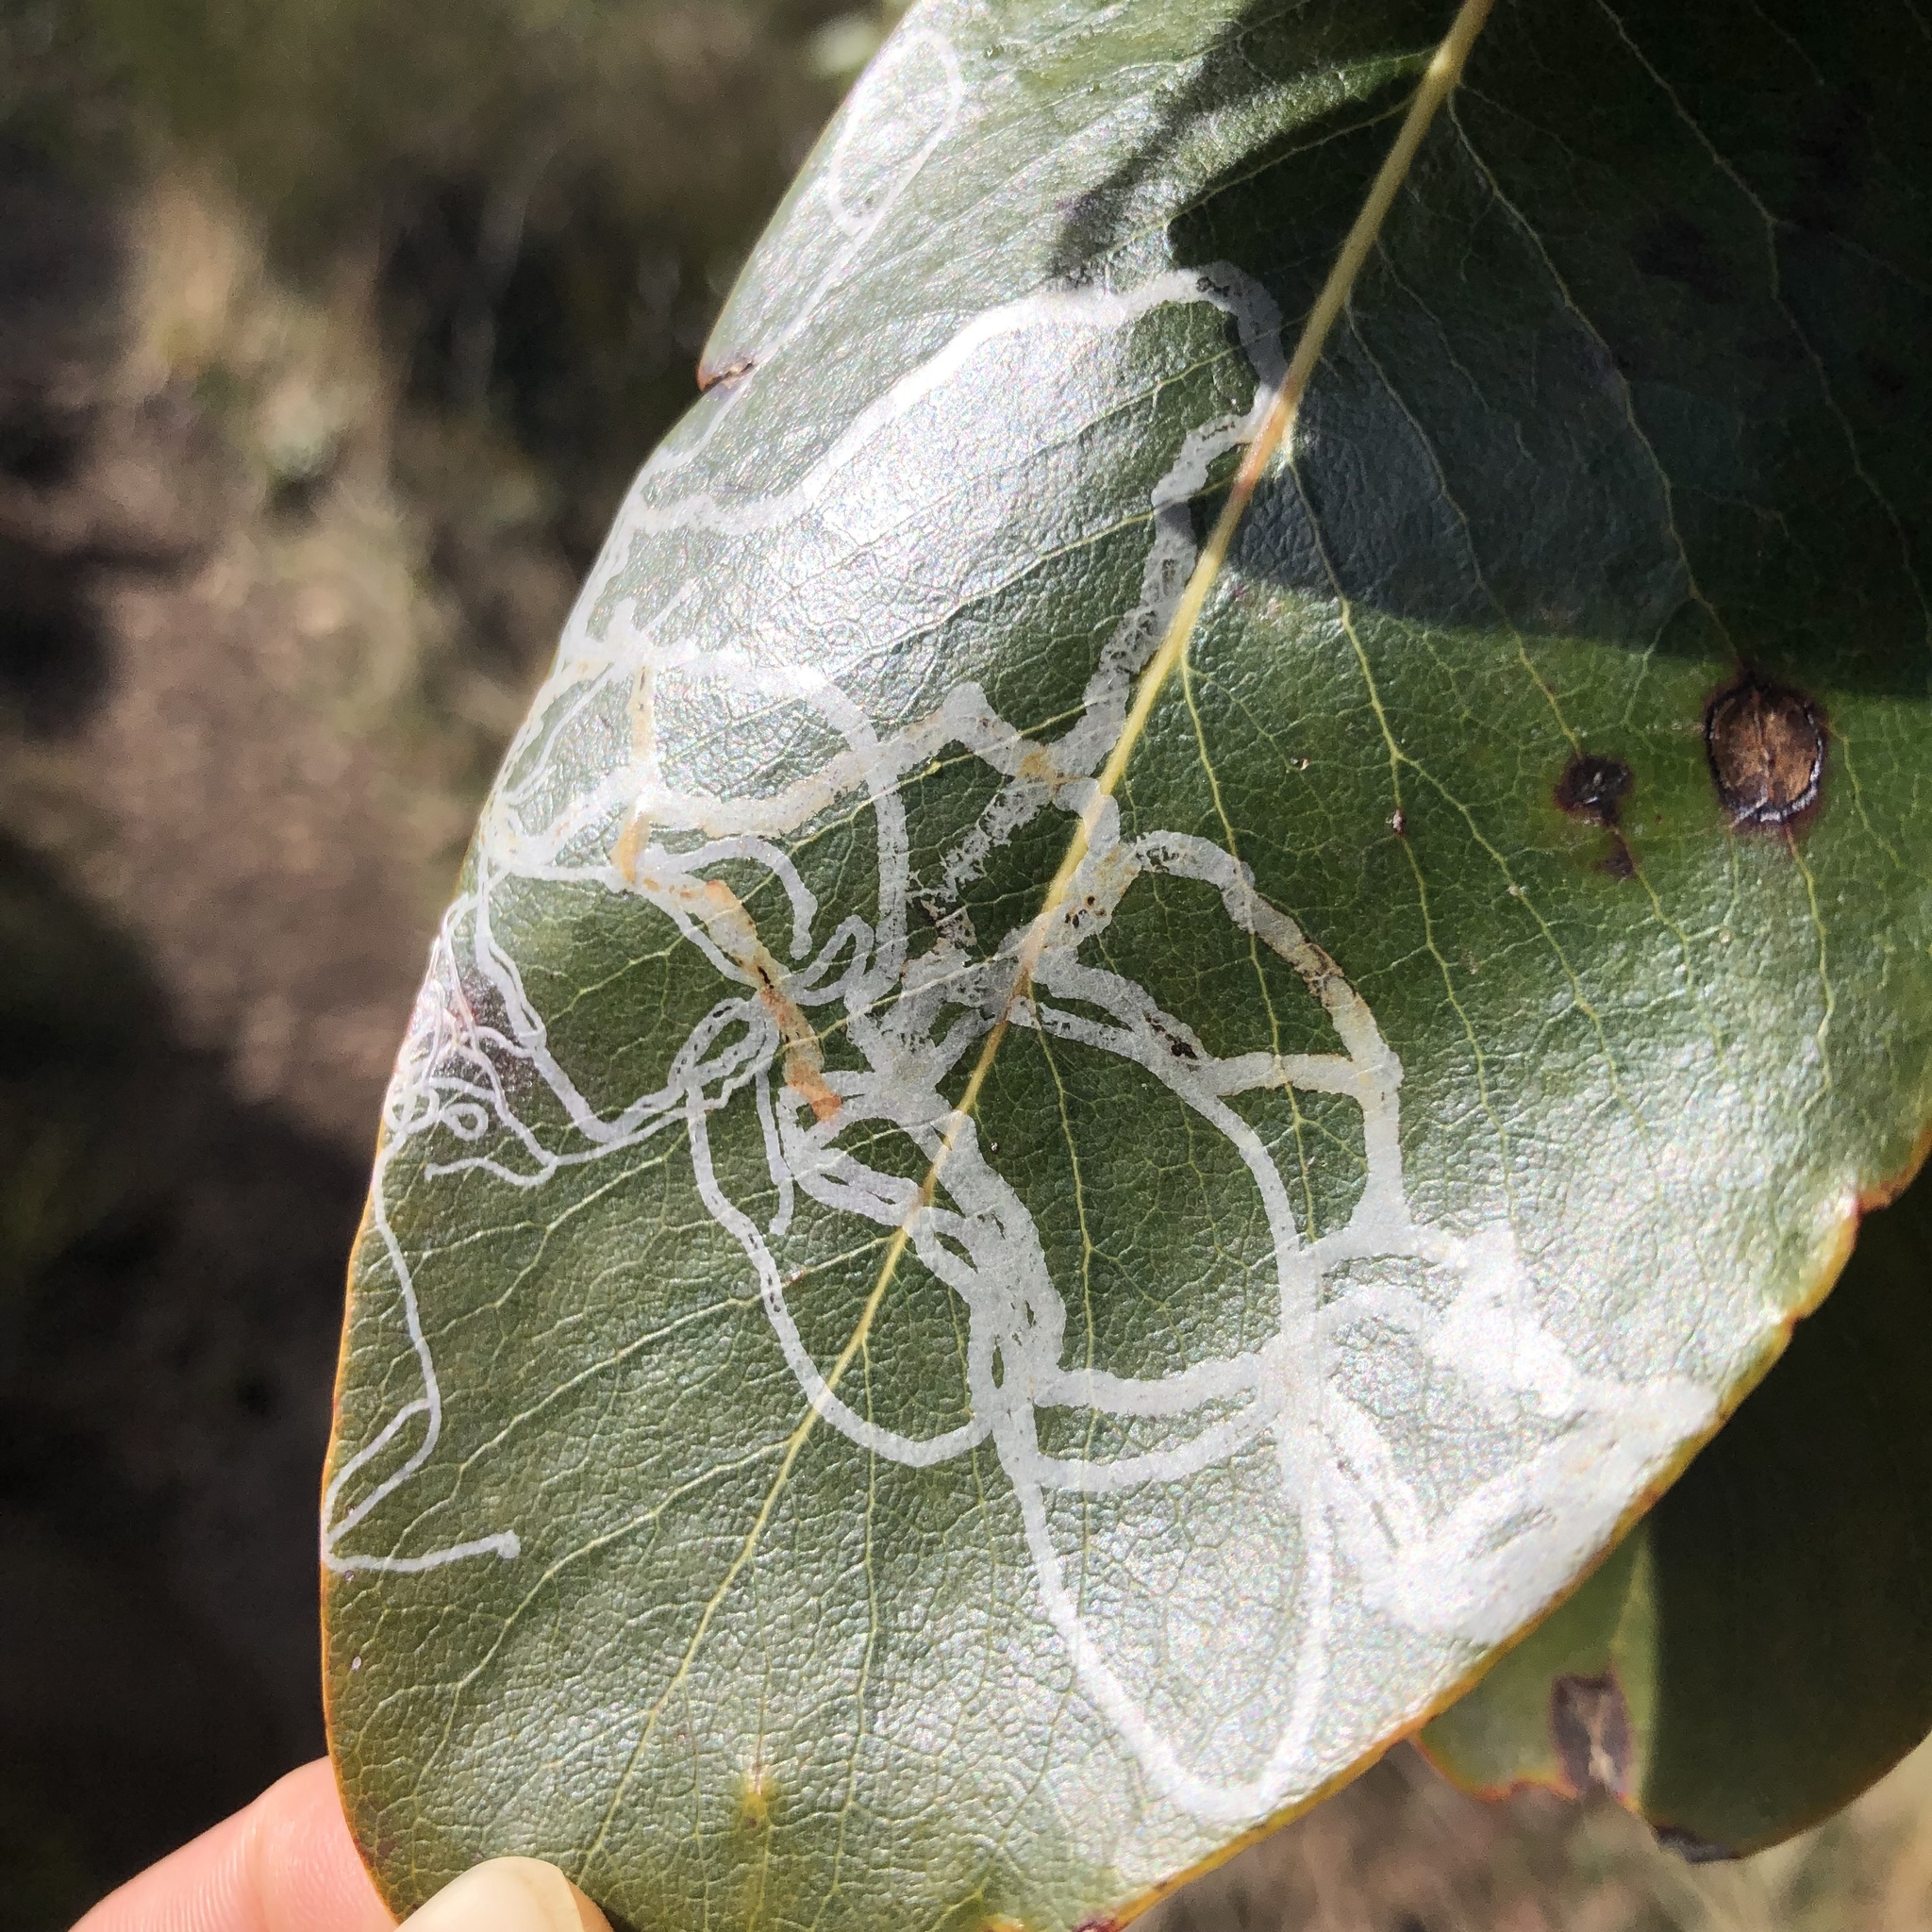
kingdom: Animalia
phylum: Arthropoda
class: Insecta
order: Lepidoptera
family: Gracillariidae
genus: Marmara
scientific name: Marmara arbutiella
